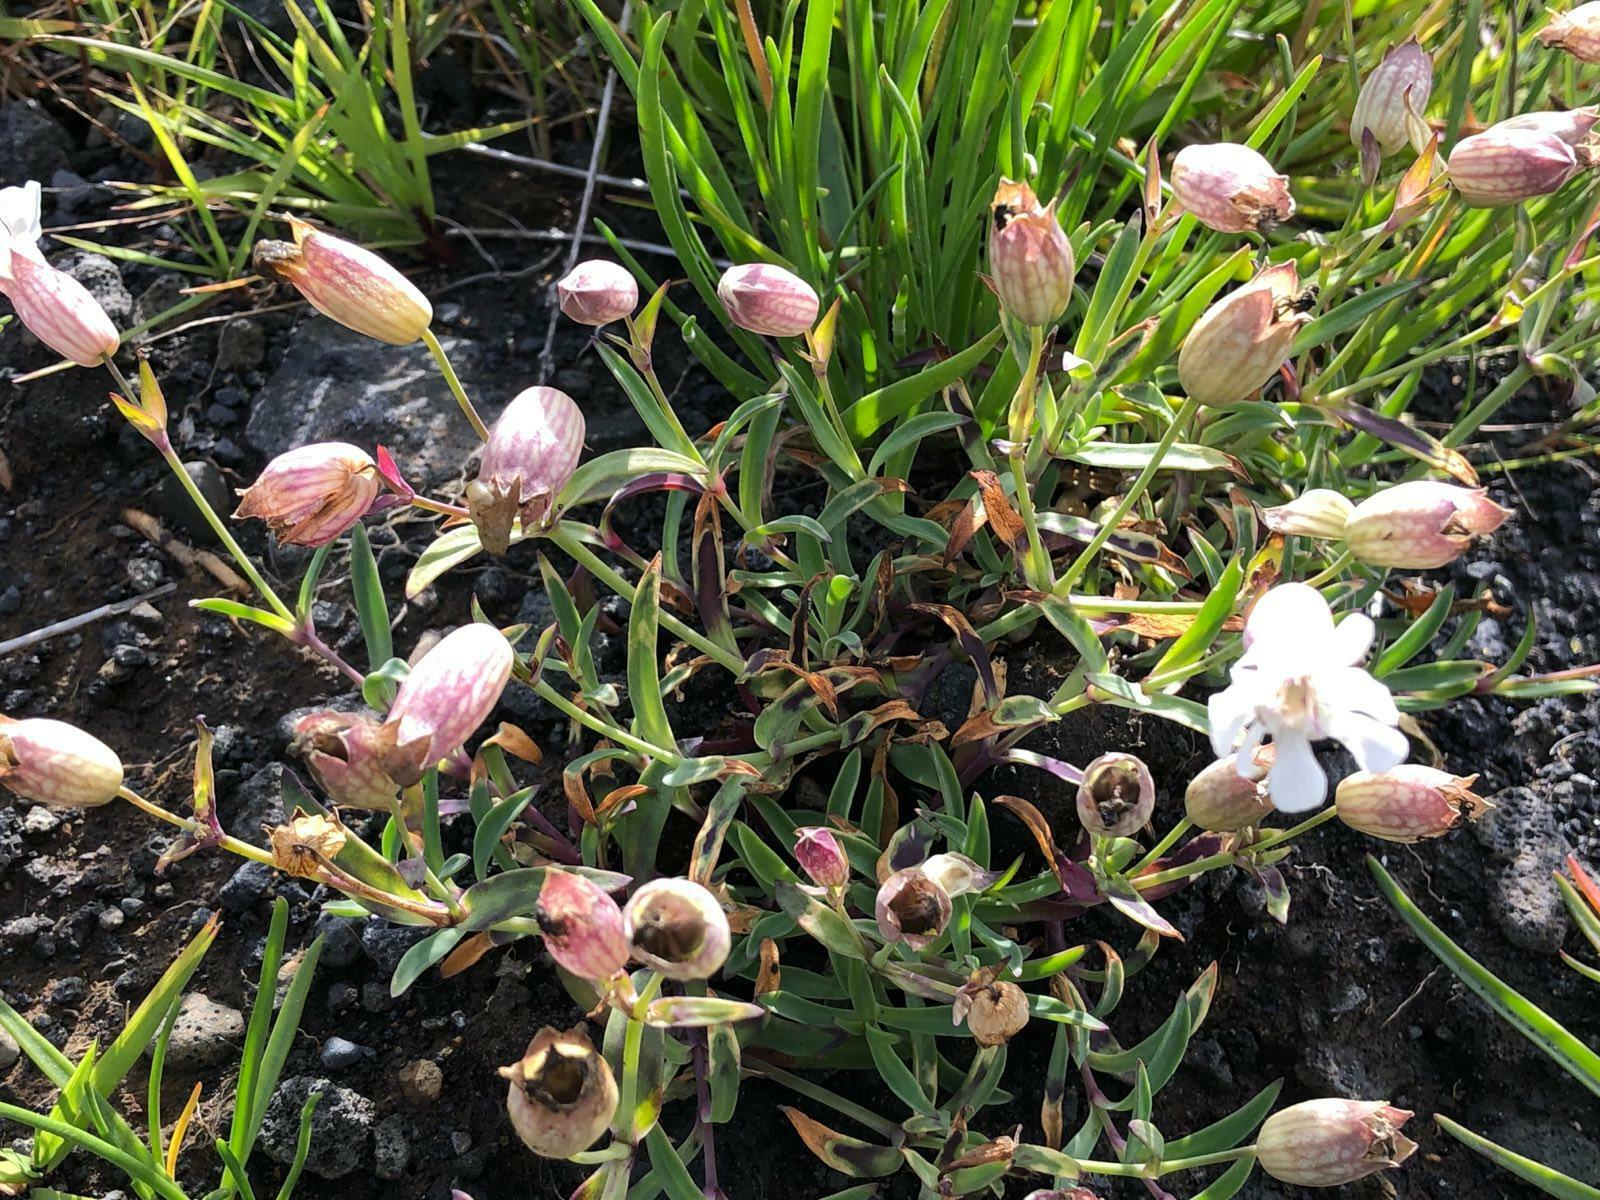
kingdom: Plantae
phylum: Tracheophyta
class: Magnoliopsida
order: Caryophyllales
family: Caryophyllaceae
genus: Silene
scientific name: Silene uniflora
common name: Sea campion
